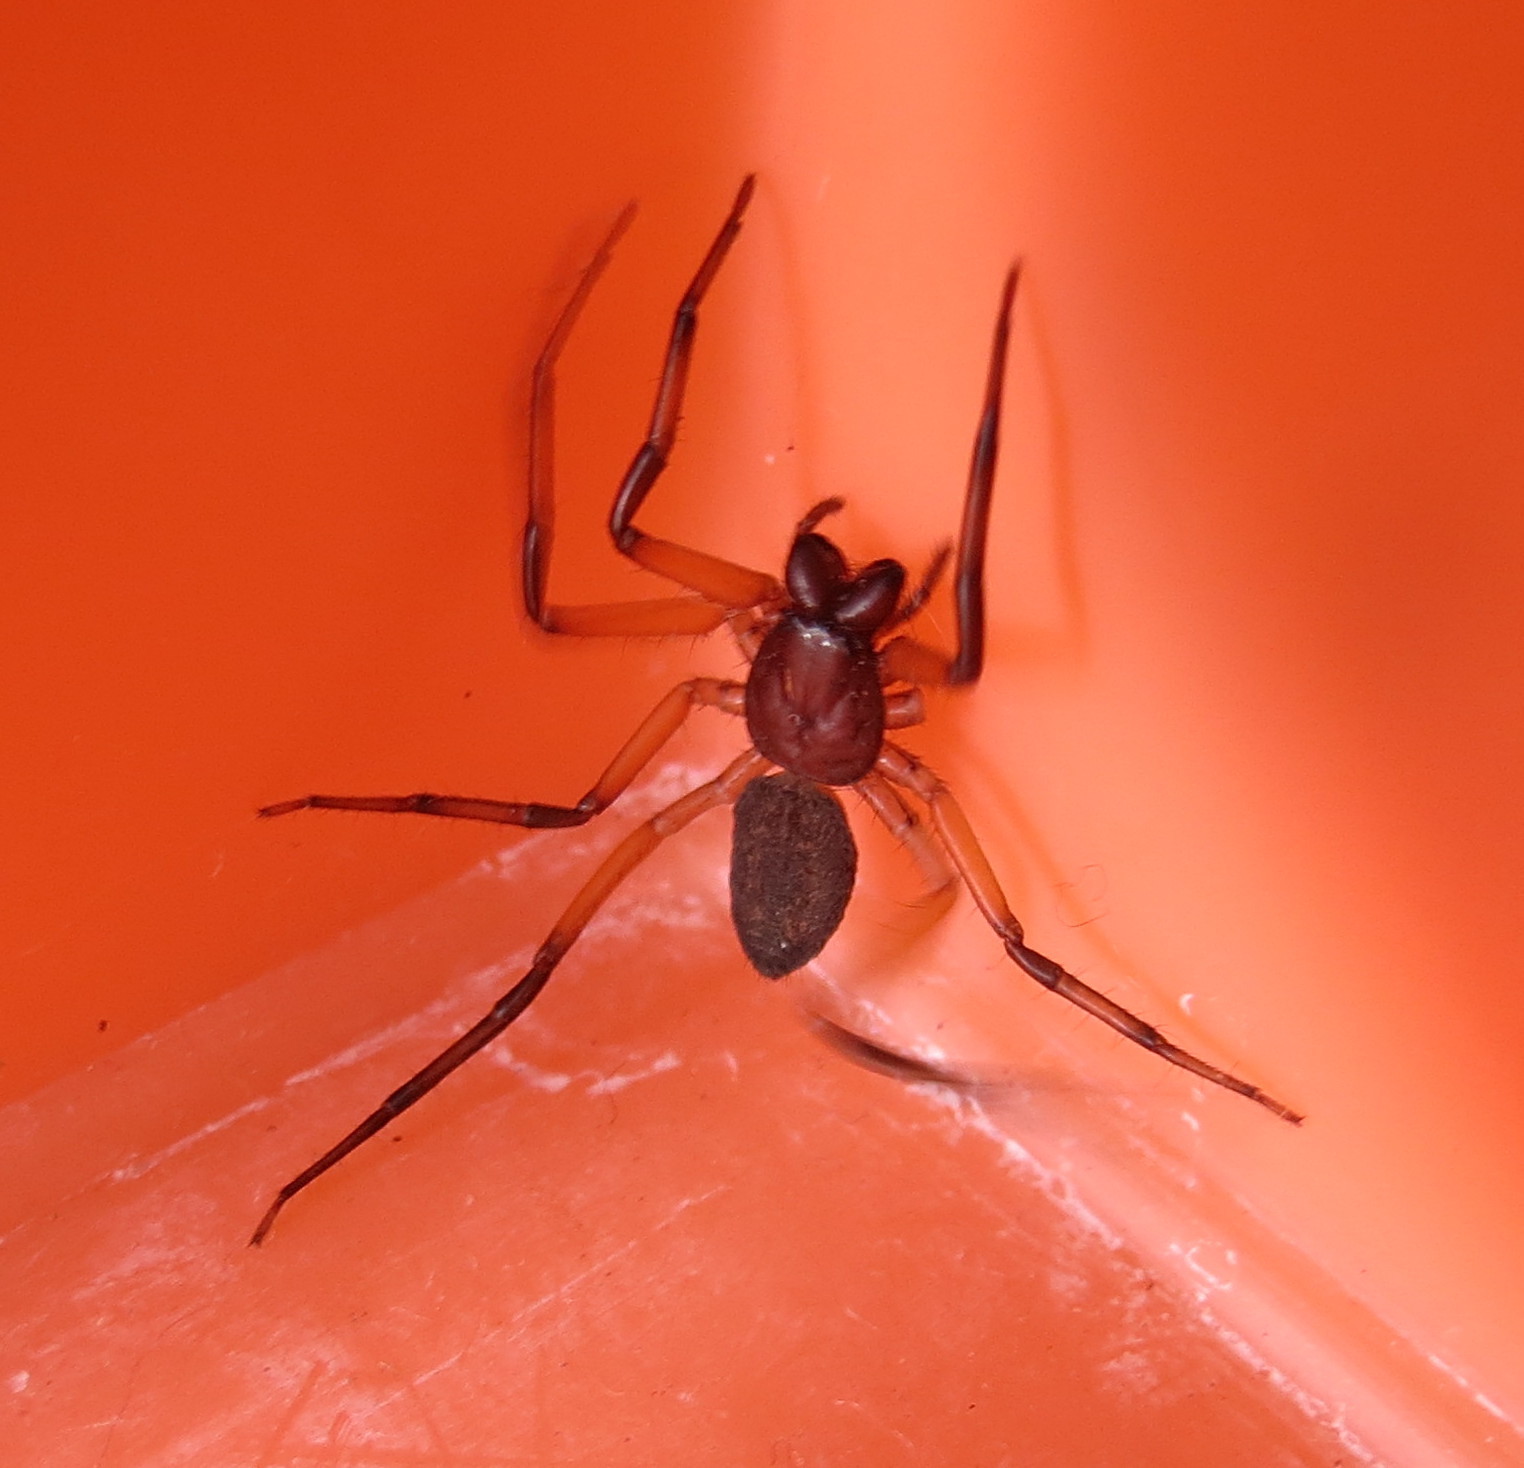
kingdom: Animalia
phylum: Arthropoda
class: Arachnida
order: Araneae
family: Trochanteriidae
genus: Platyoides
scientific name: Platyoides walteri
